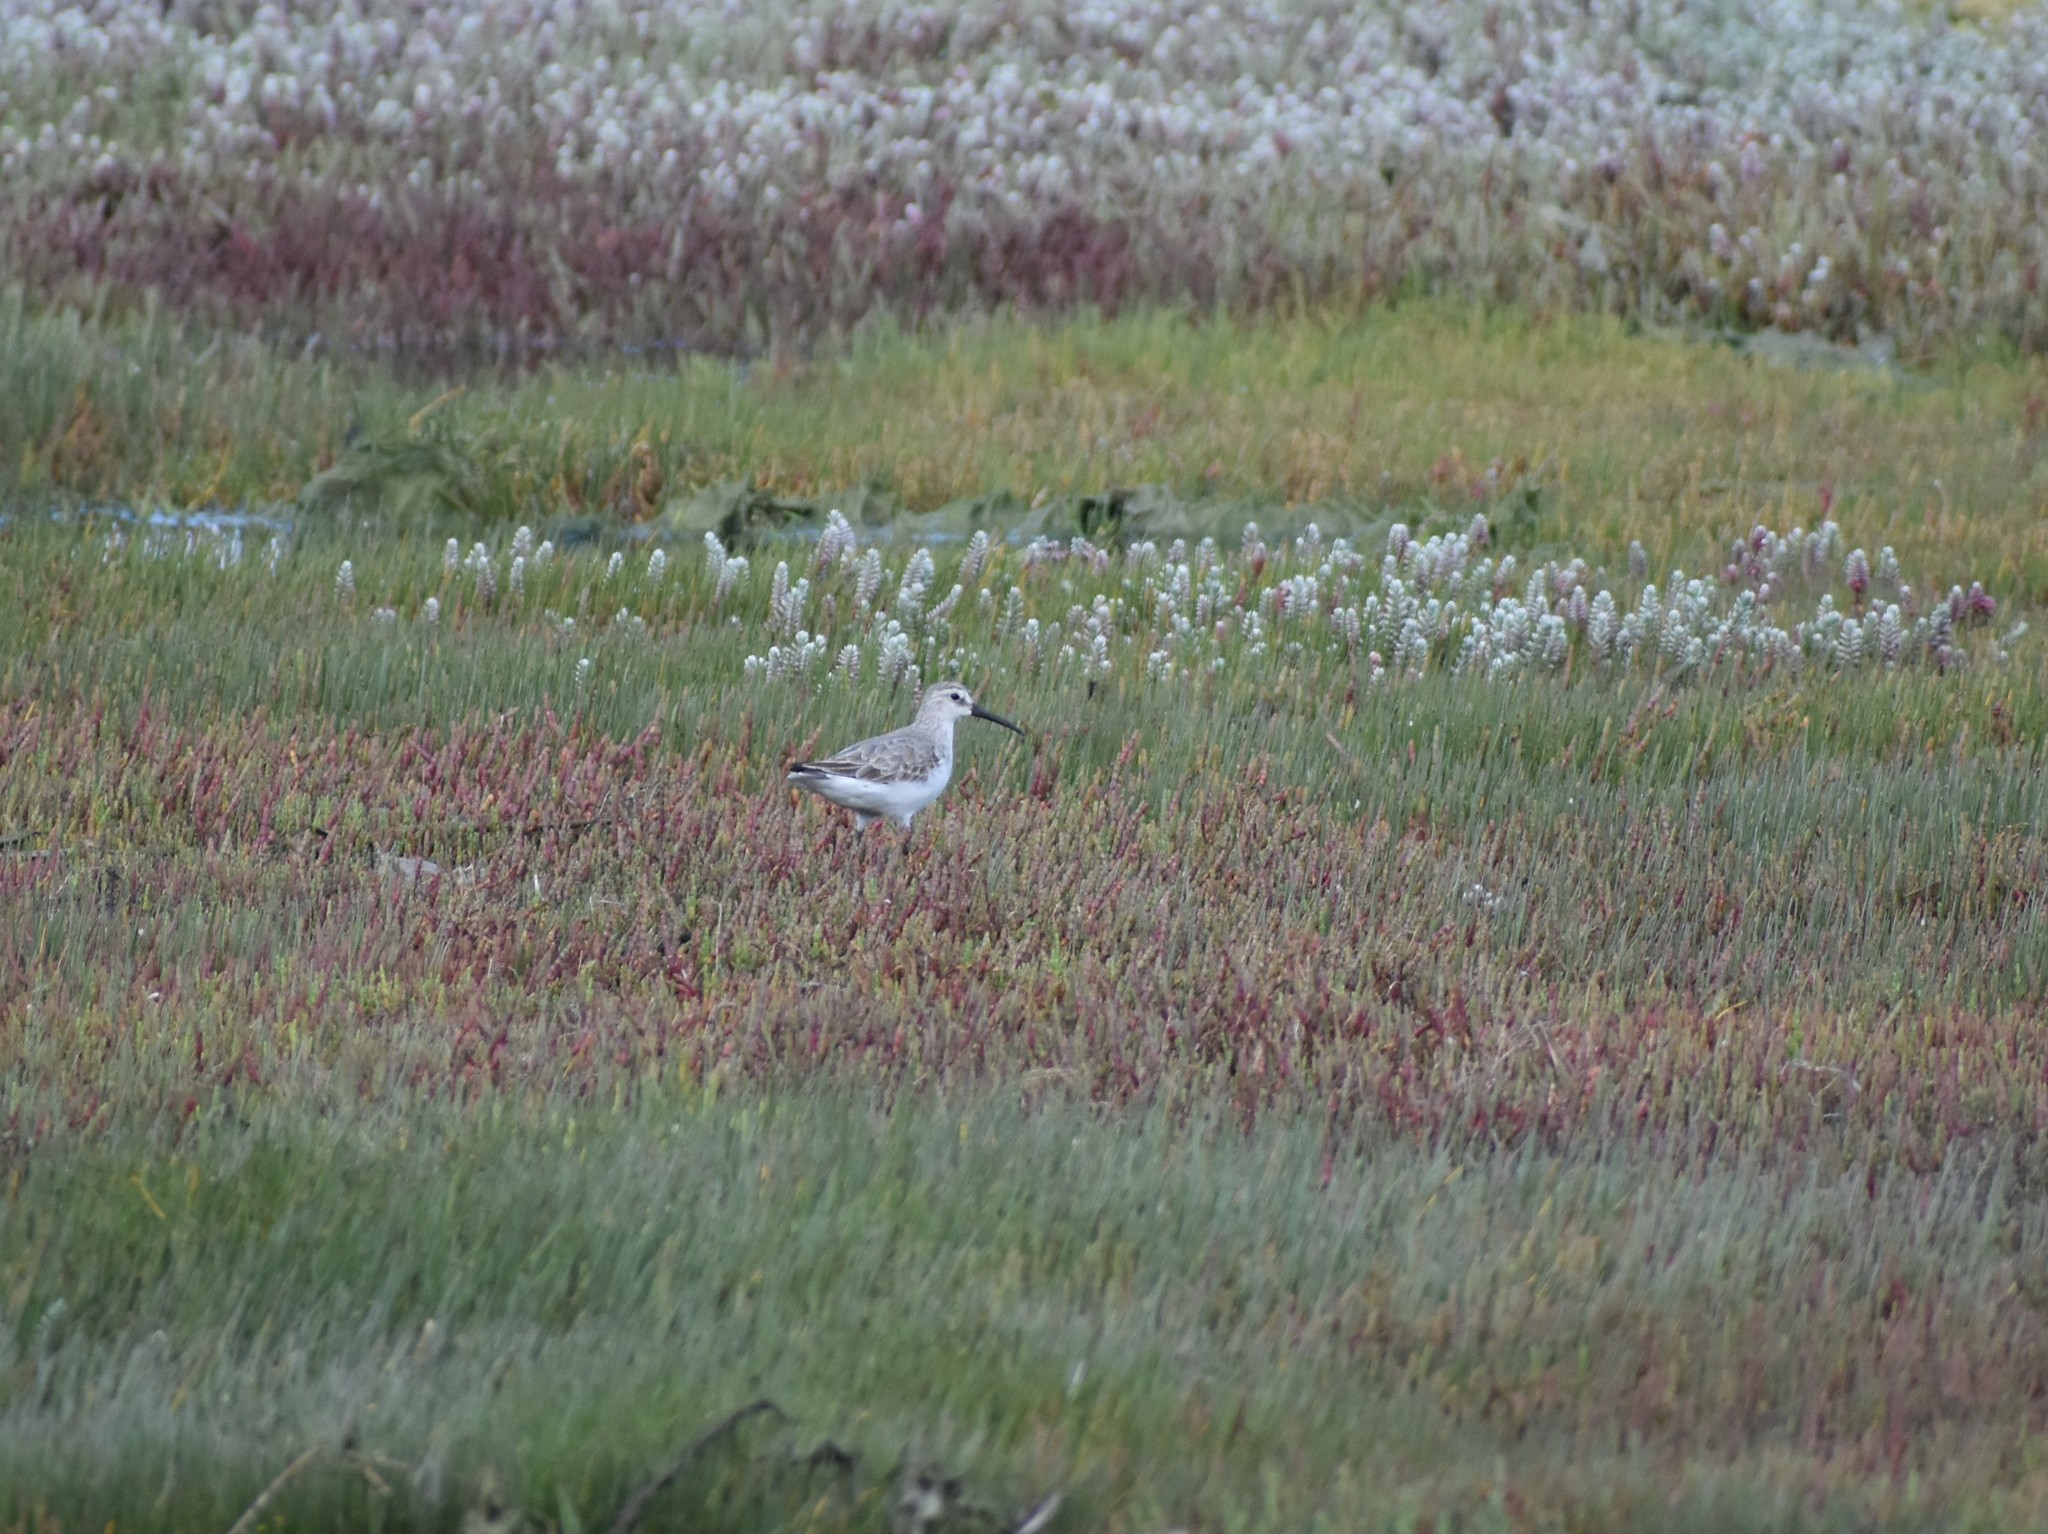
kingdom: Animalia
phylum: Chordata
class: Aves
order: Charadriiformes
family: Scolopacidae
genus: Calidris
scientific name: Calidris ferruginea
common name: Curlew sandpiper
